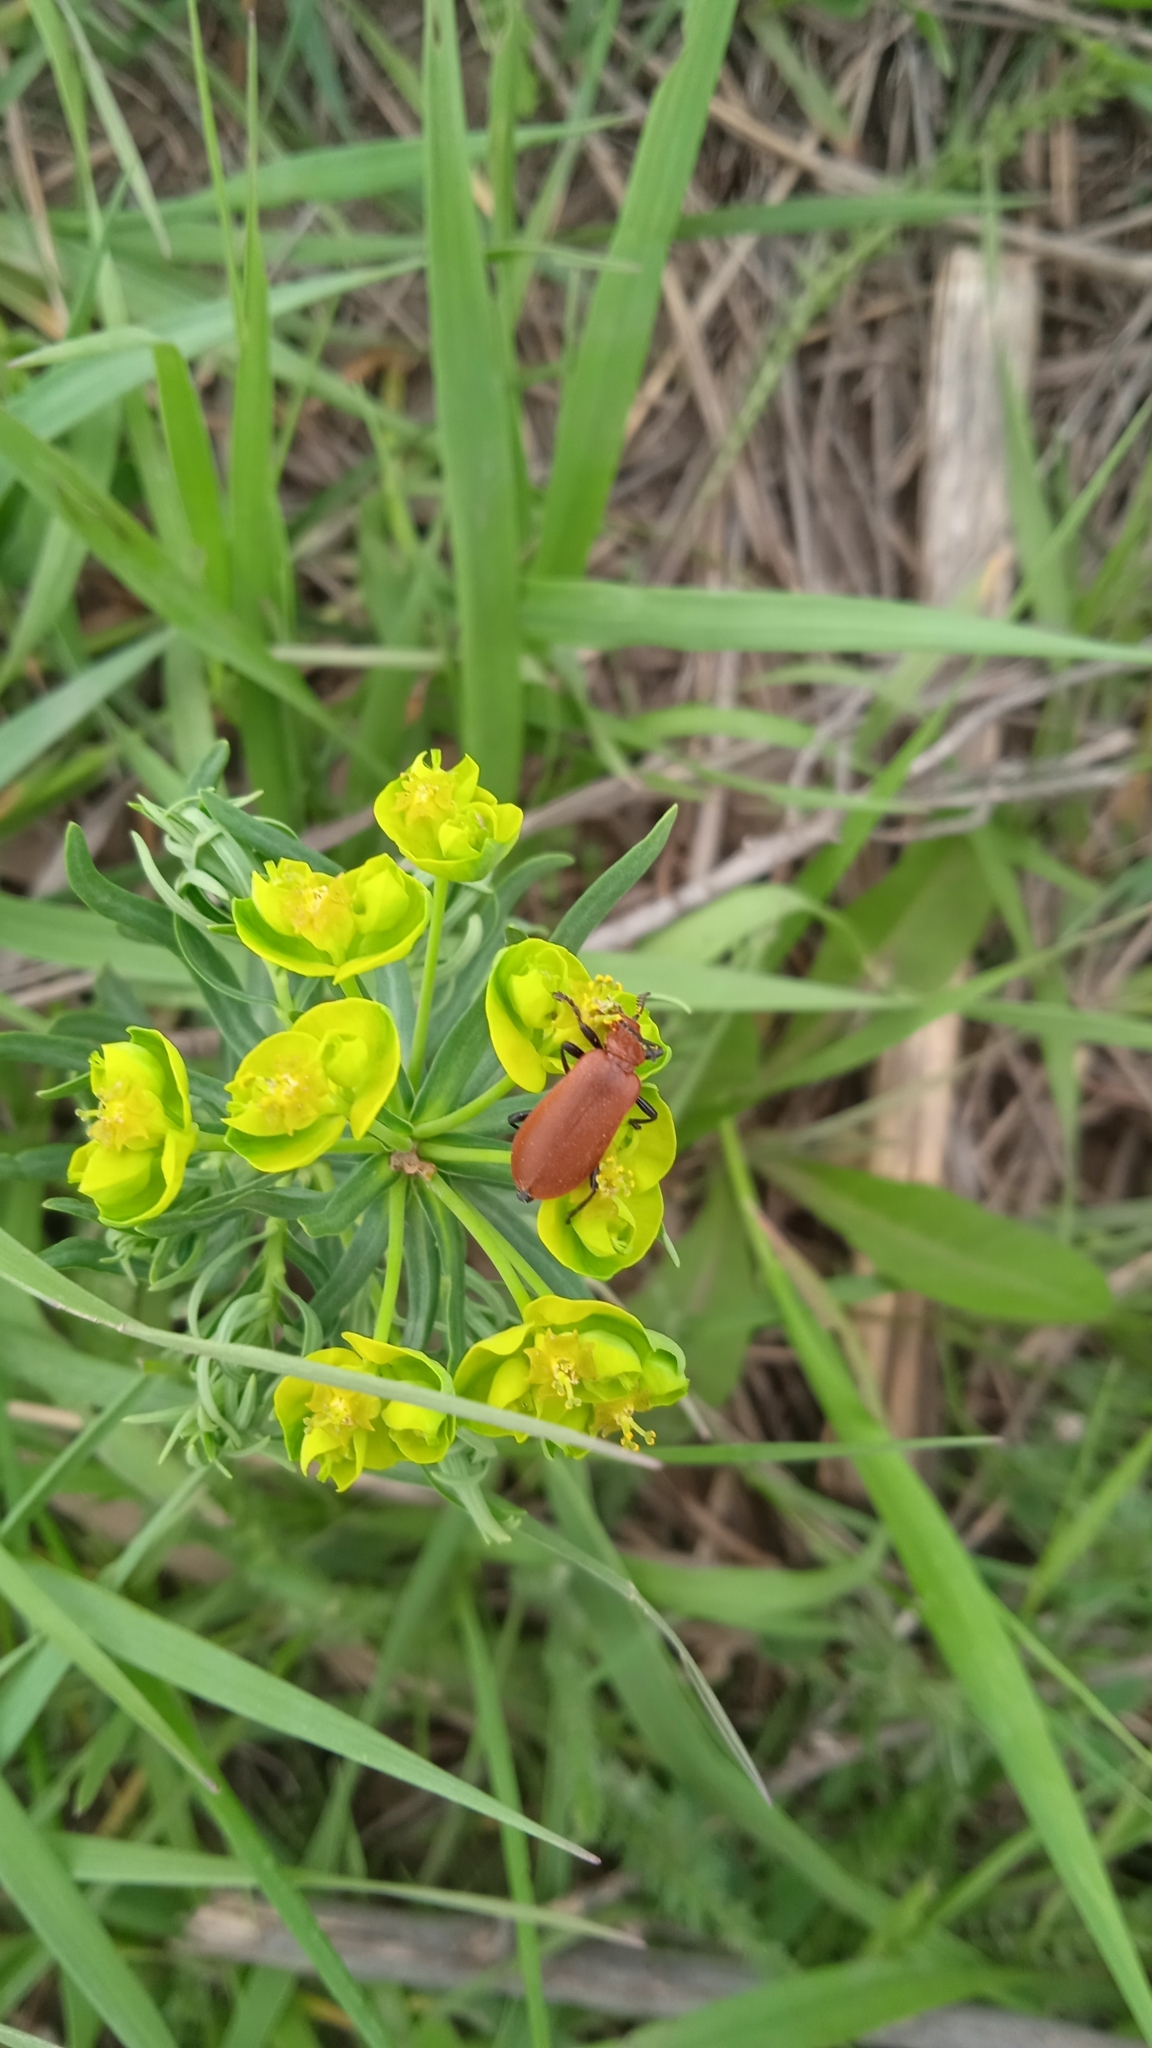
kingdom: Animalia
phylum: Arthropoda
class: Insecta
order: Coleoptera
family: Pyrochroidae
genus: Pyrochroa
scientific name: Pyrochroa serraticornis
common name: Red-headed cardinal beetle
